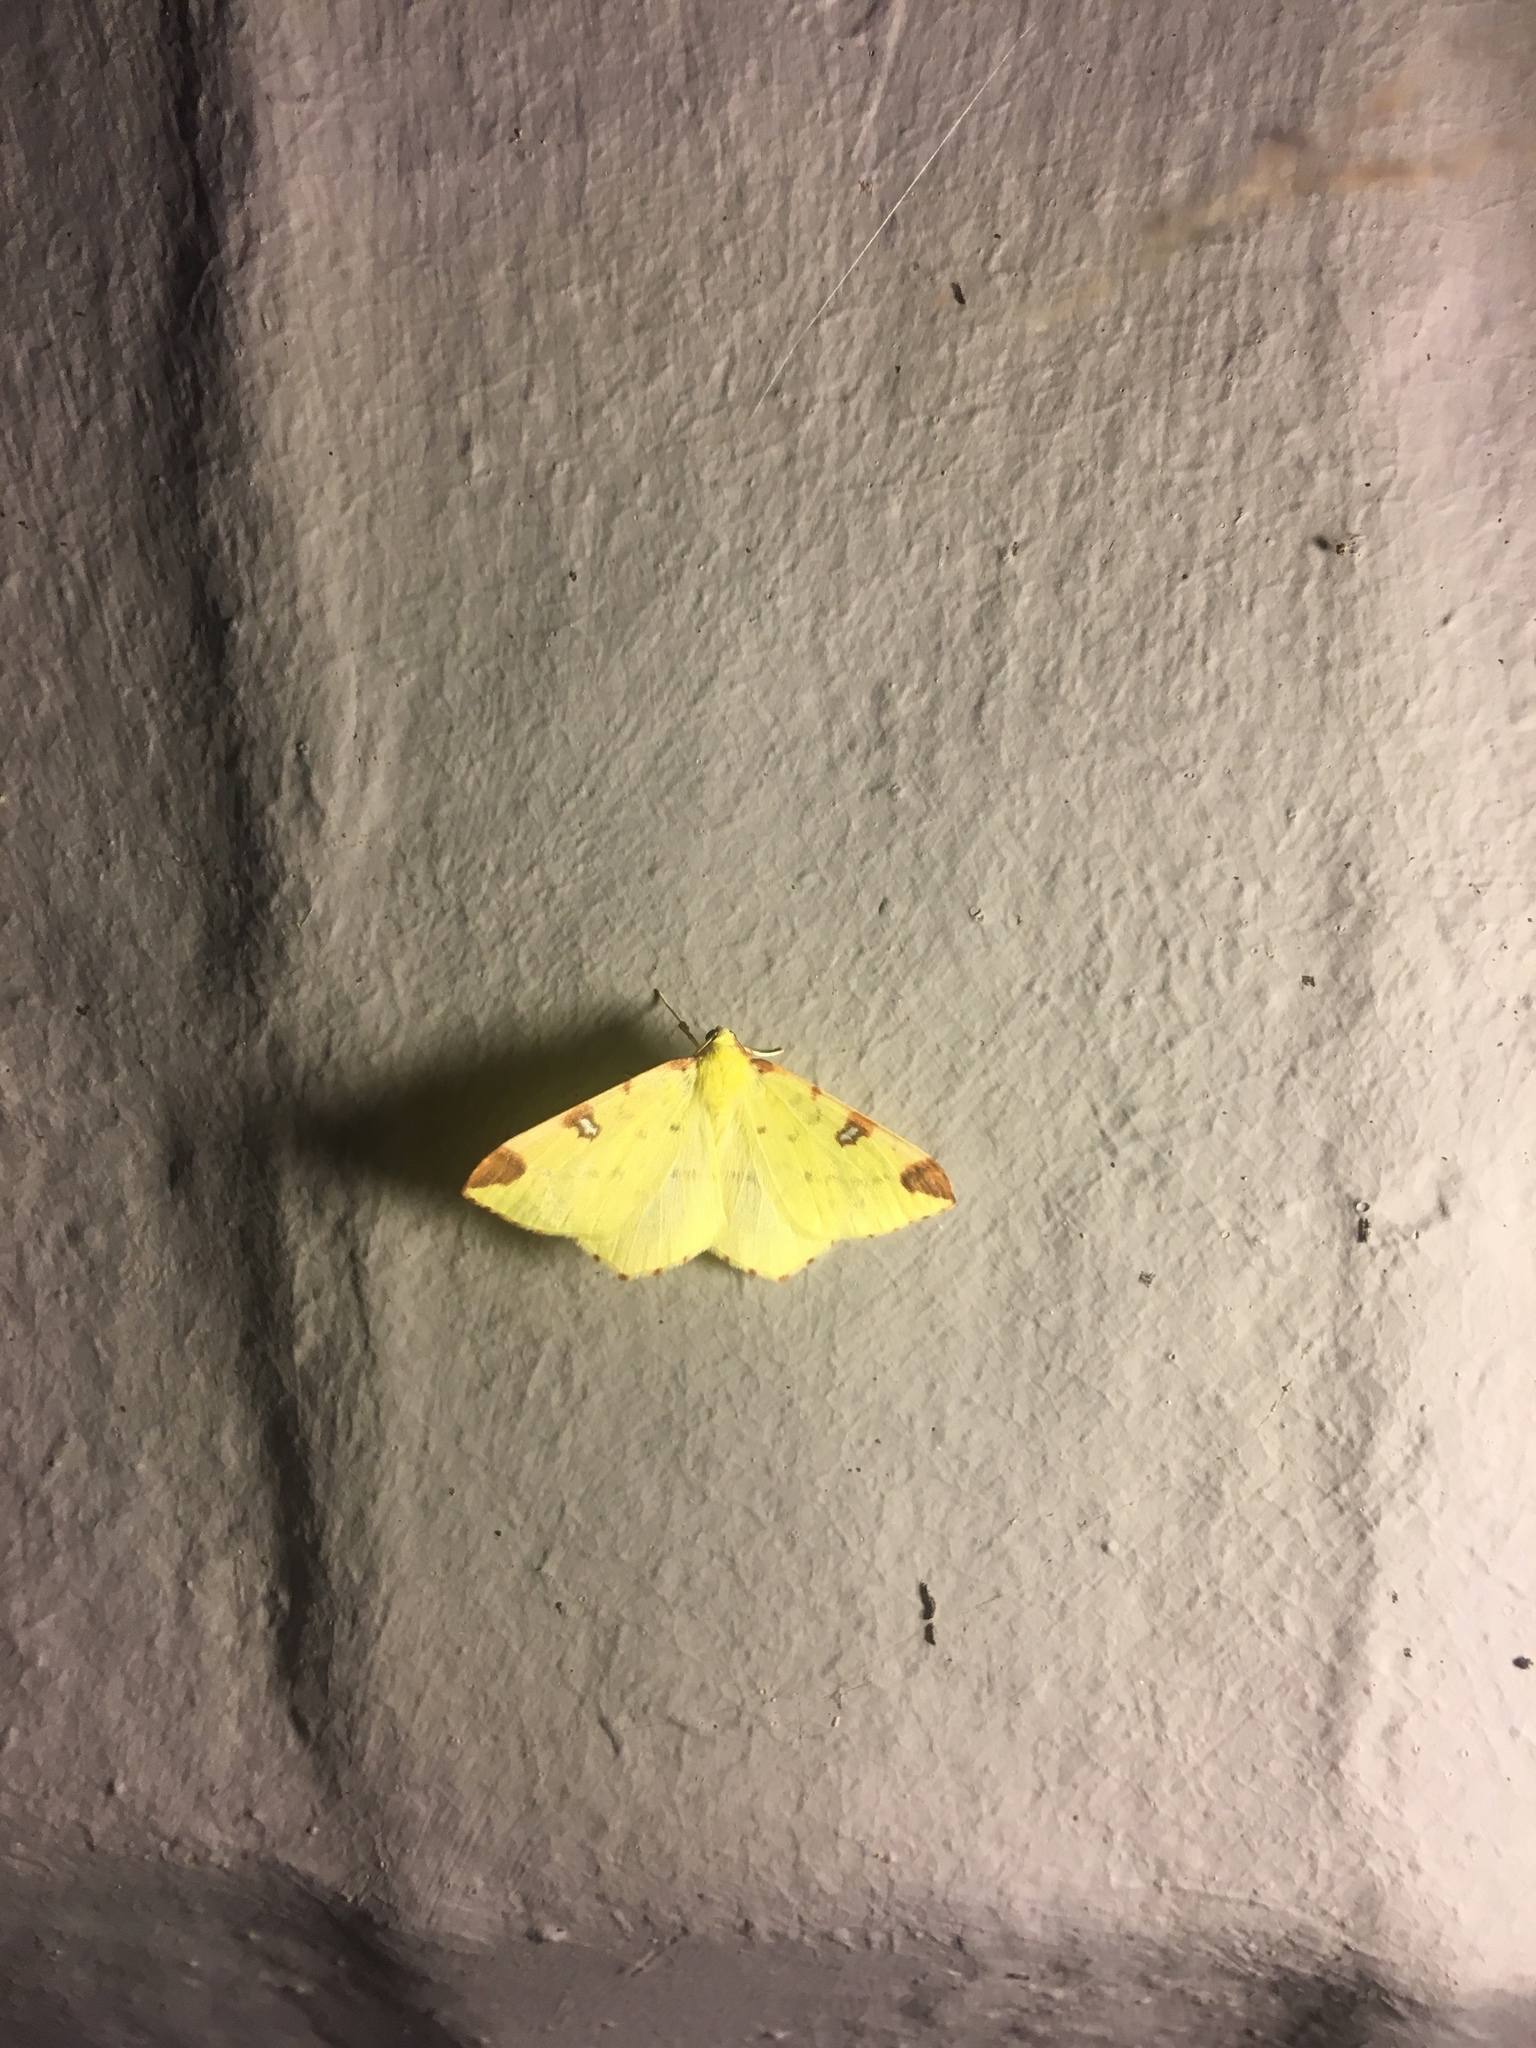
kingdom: Animalia
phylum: Arthropoda
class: Insecta
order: Lepidoptera
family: Geometridae
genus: Opisthograptis
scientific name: Opisthograptis luteolata
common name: Brimstone moth
